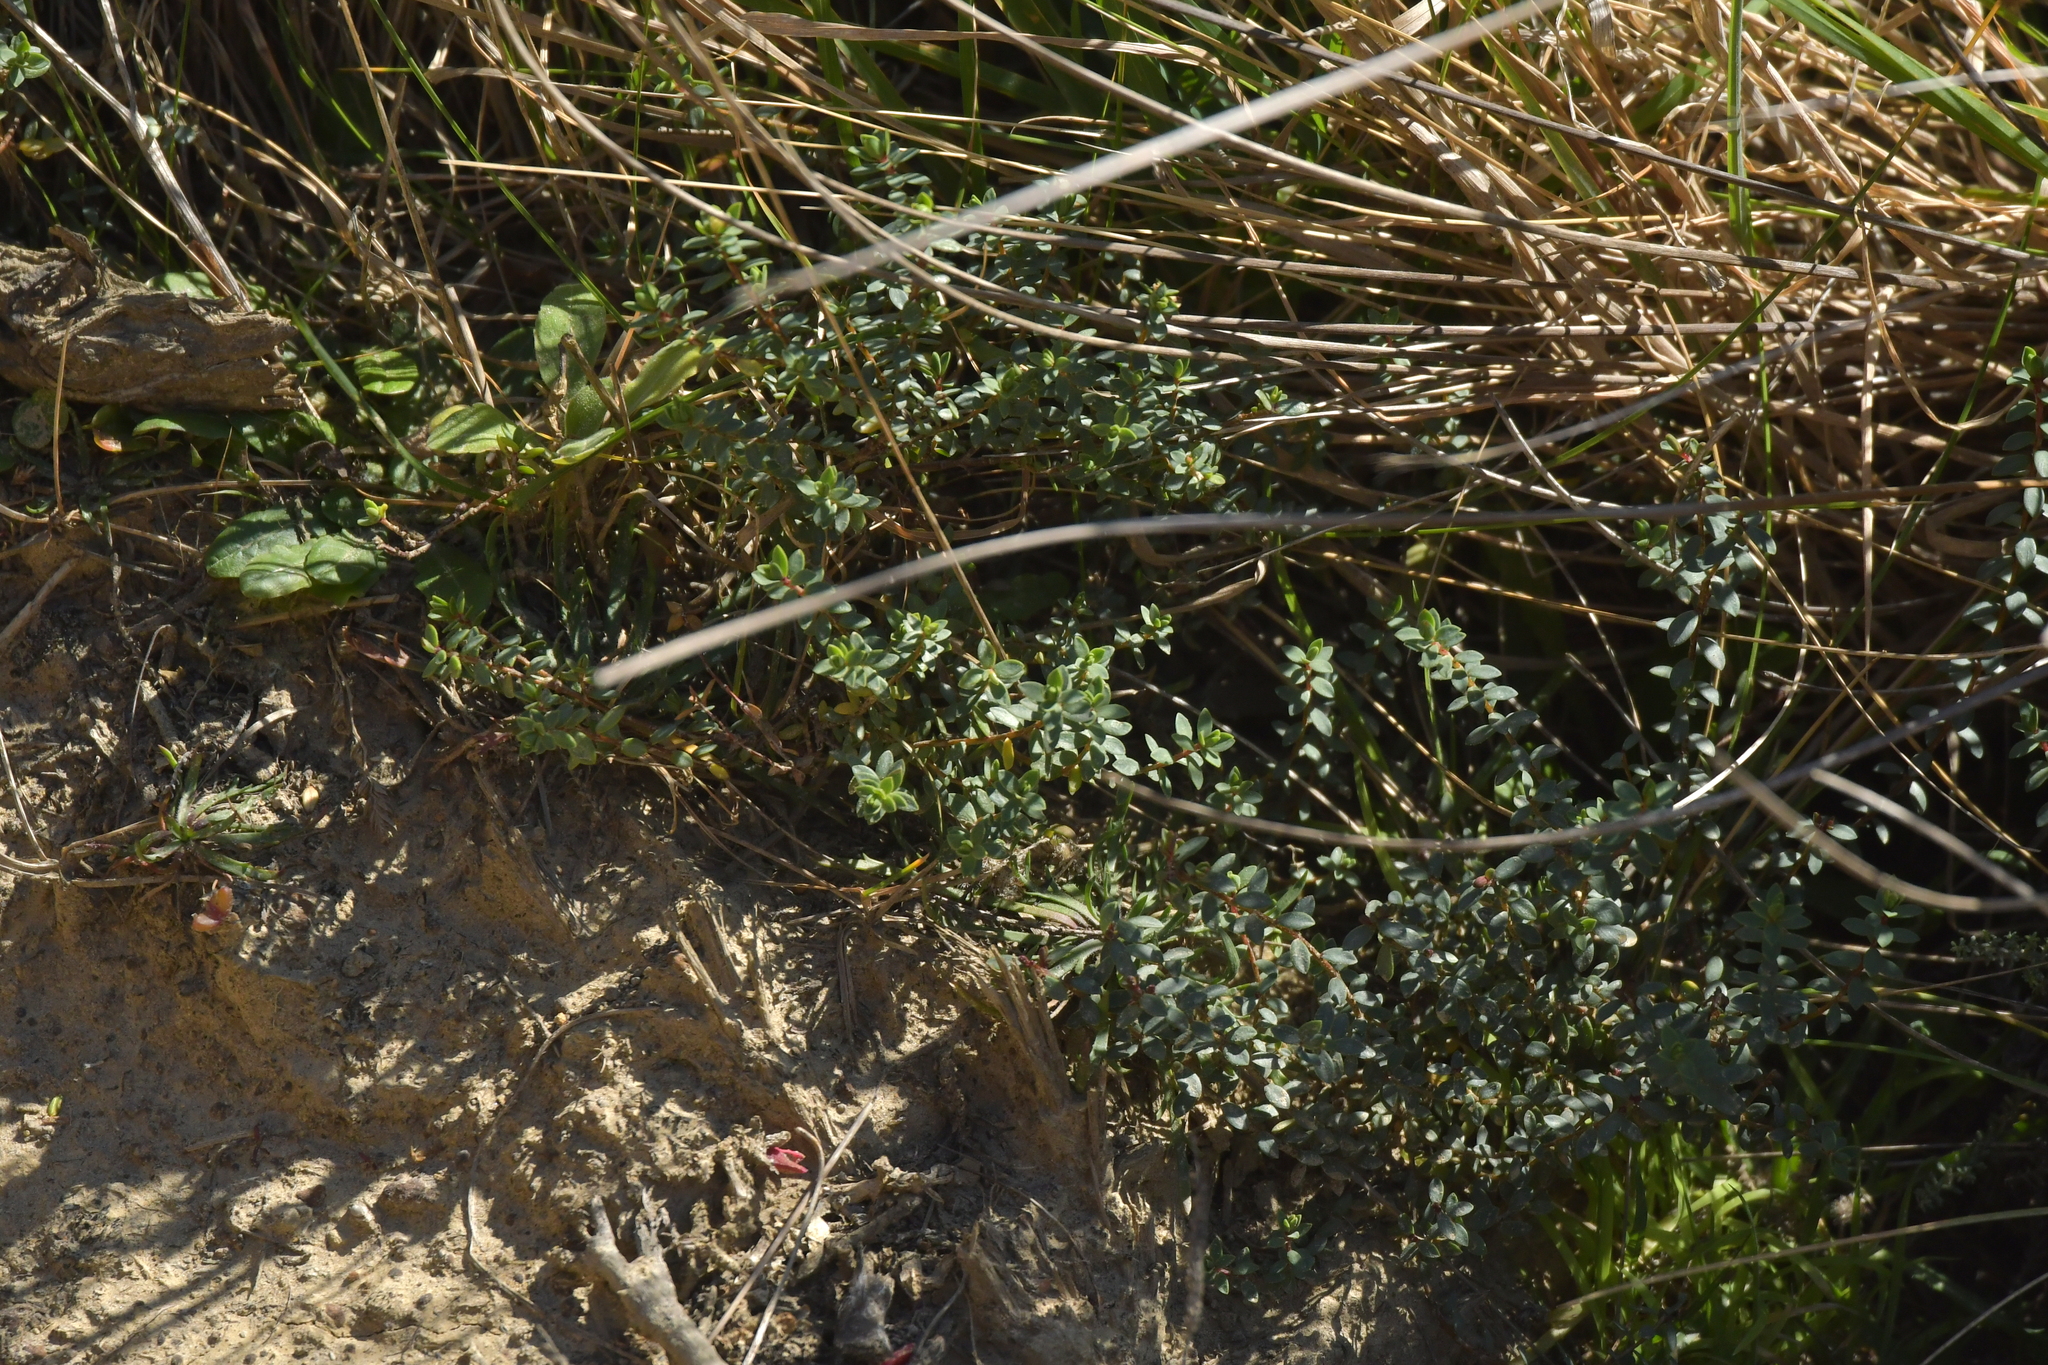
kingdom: Plantae
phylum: Tracheophyta
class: Magnoliopsida
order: Malvales
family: Thymelaeaceae
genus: Pimelea
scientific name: Pimelea prostrata
